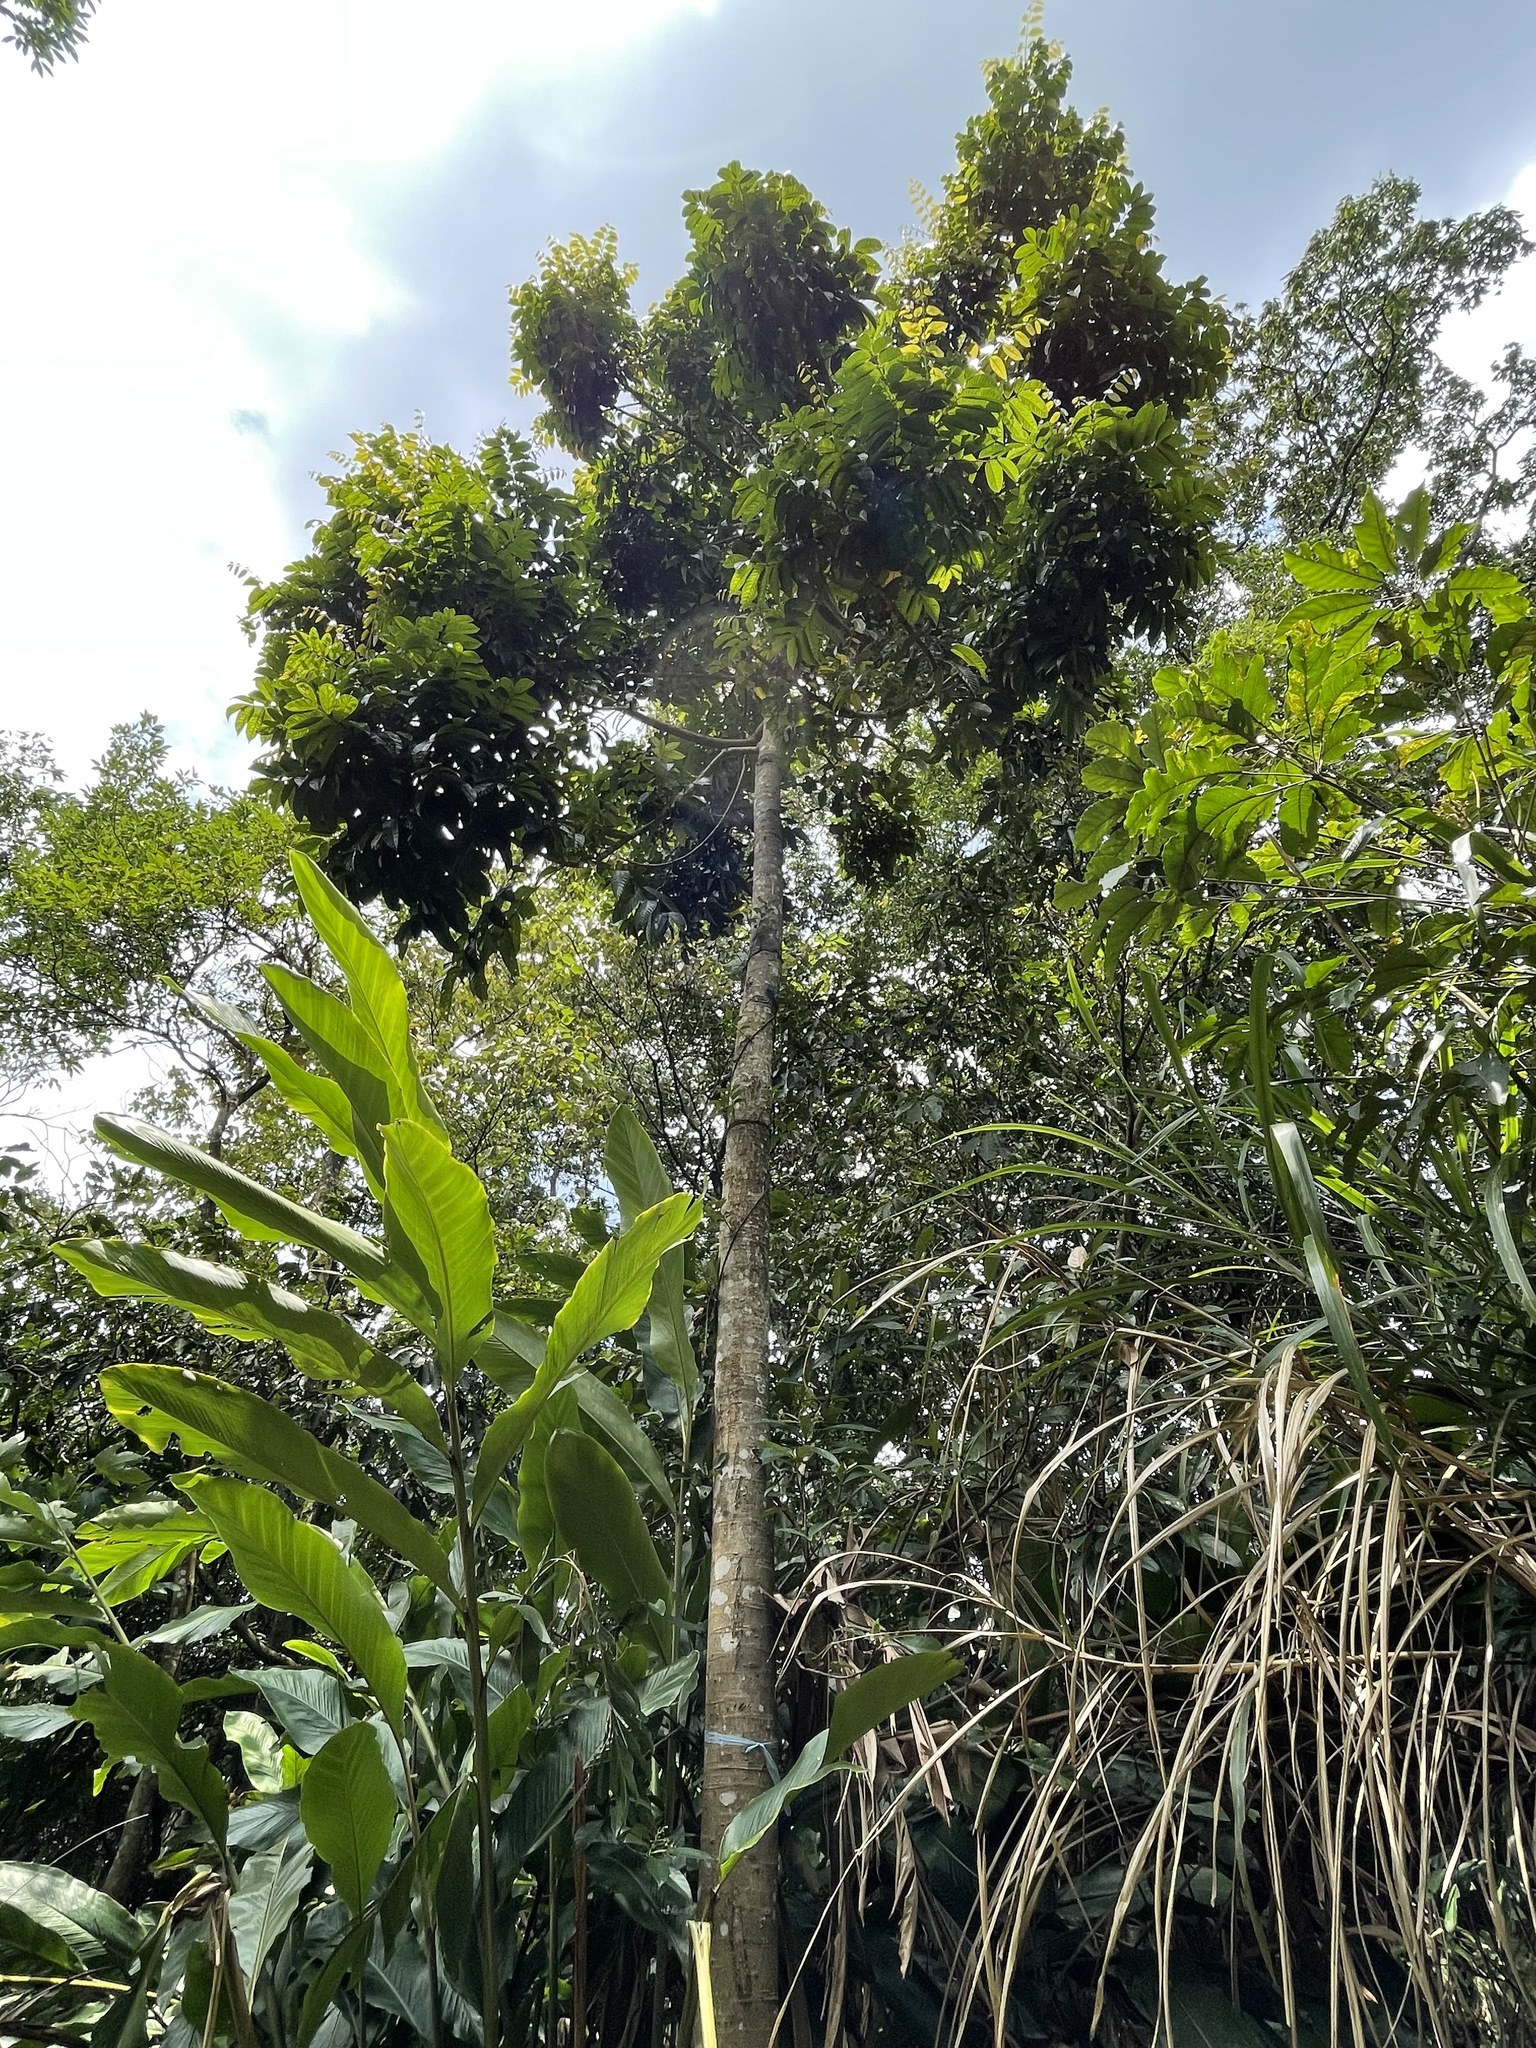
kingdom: Plantae
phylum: Tracheophyta
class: Magnoliopsida
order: Sapindales
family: Burseraceae
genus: Canarium
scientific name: Canarium subulatum
